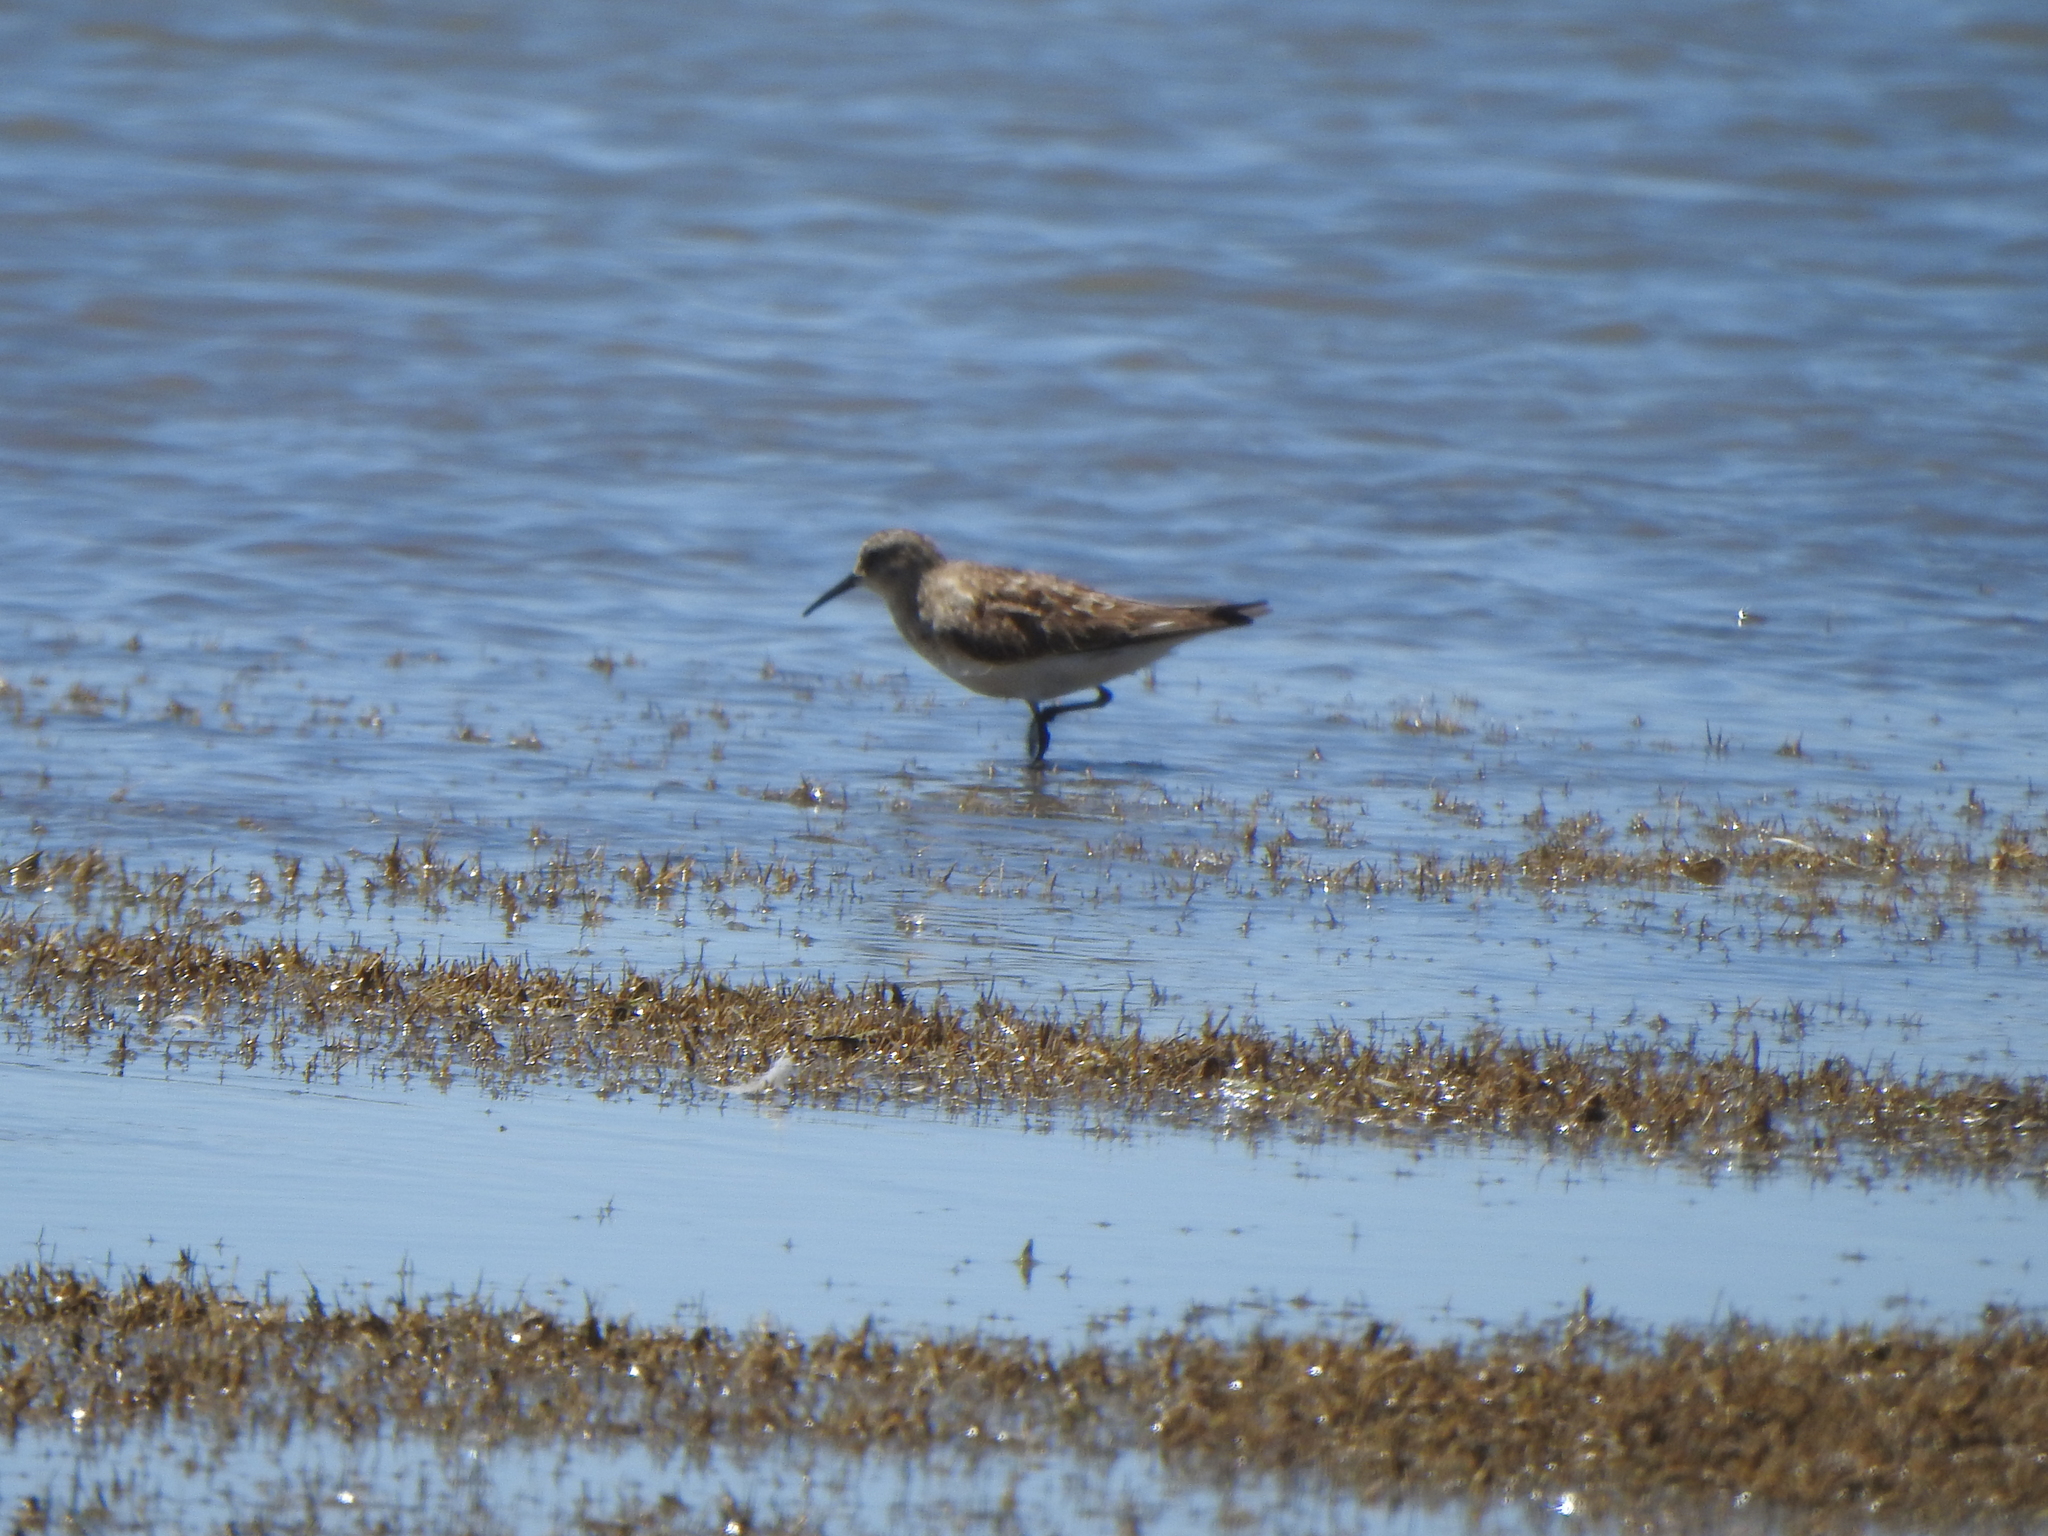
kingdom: Animalia
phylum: Chordata
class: Aves
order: Charadriiformes
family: Scolopacidae
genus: Calidris
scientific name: Calidris bairdii
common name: Baird's sandpiper
